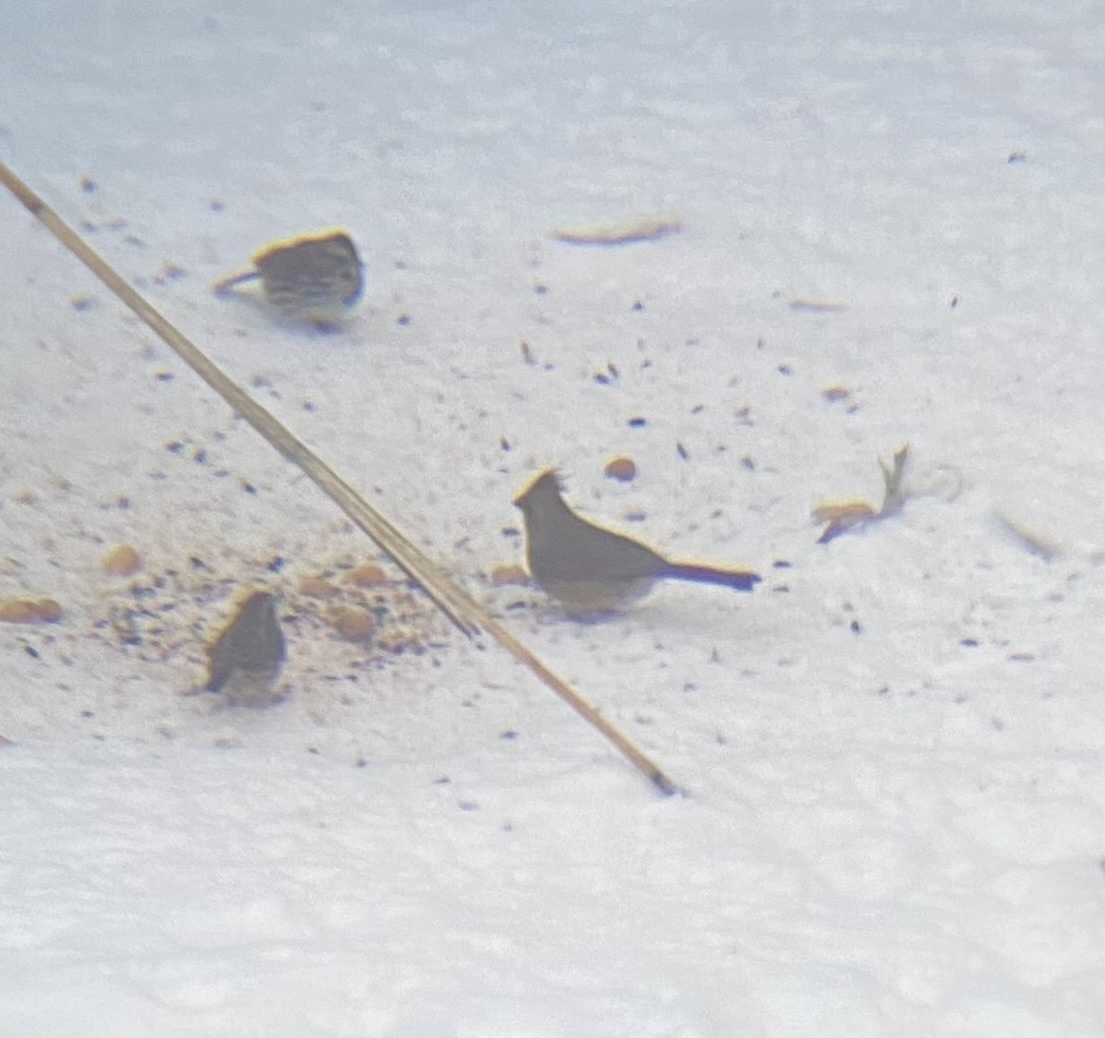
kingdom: Animalia
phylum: Chordata
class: Aves
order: Passeriformes
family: Cardinalidae
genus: Cardinalis
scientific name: Cardinalis cardinalis
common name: Northern cardinal
